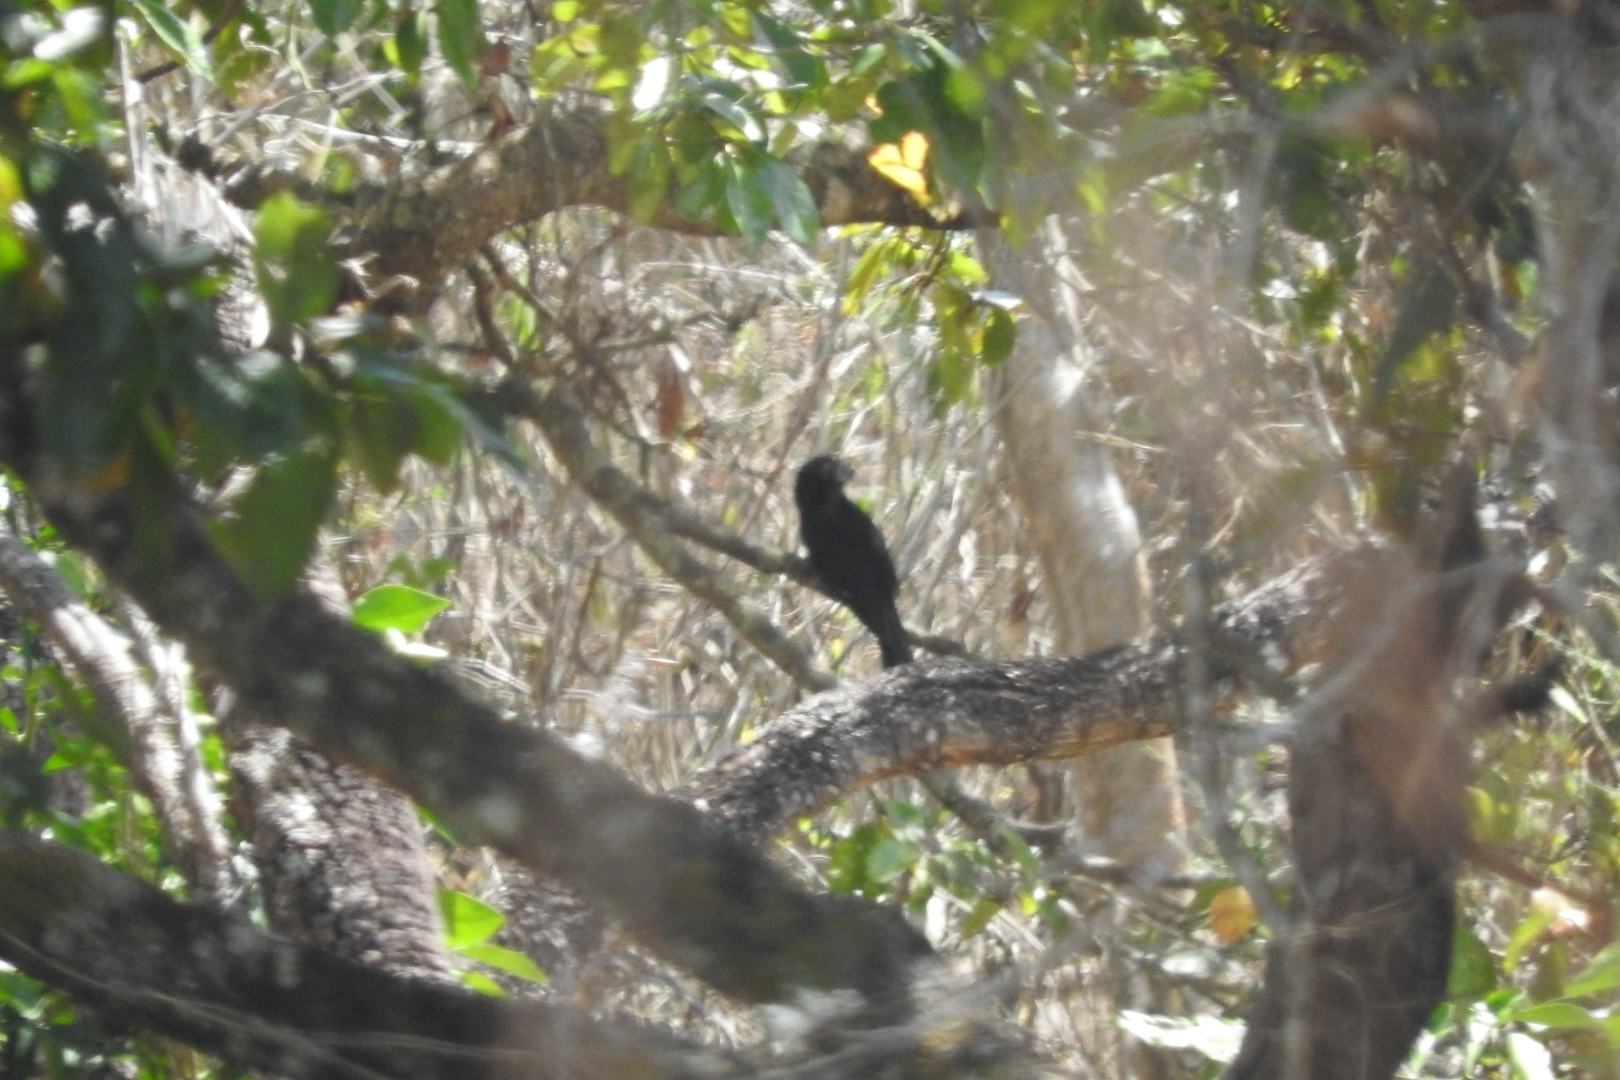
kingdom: Animalia
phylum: Chordata
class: Aves
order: Cuculiformes
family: Cuculidae
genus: Crotophaga
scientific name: Crotophaga sulcirostris
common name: Groove-billed ani
